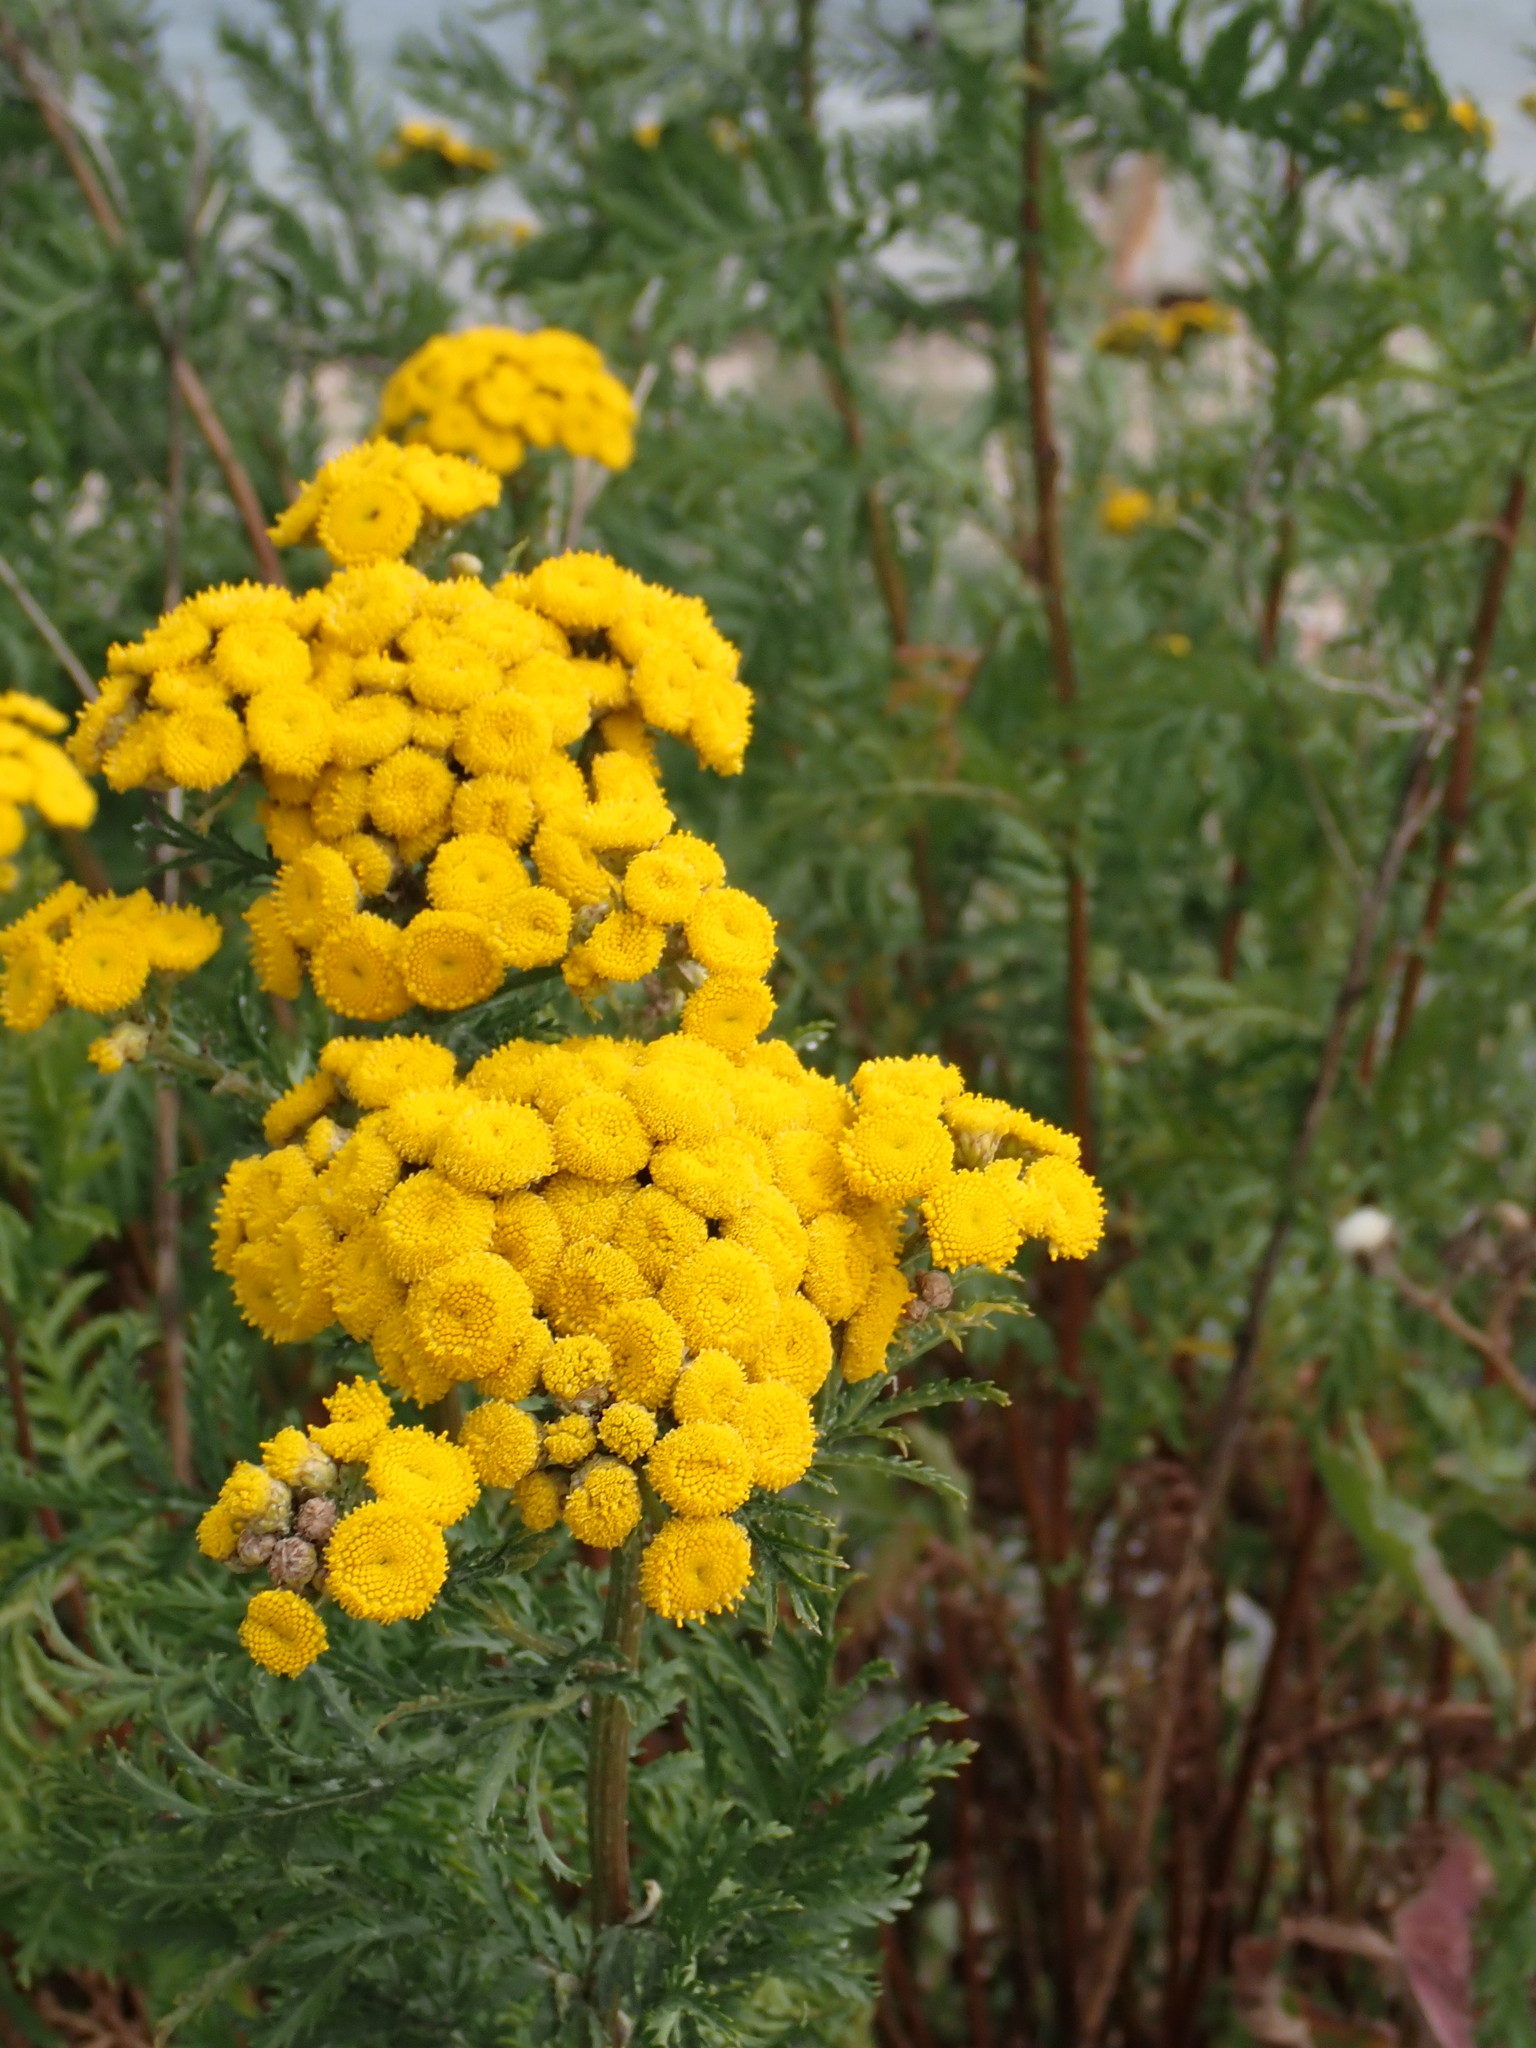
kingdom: Plantae
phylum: Tracheophyta
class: Magnoliopsida
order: Asterales
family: Asteraceae
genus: Tanacetum
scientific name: Tanacetum vulgare
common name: Common tansy
